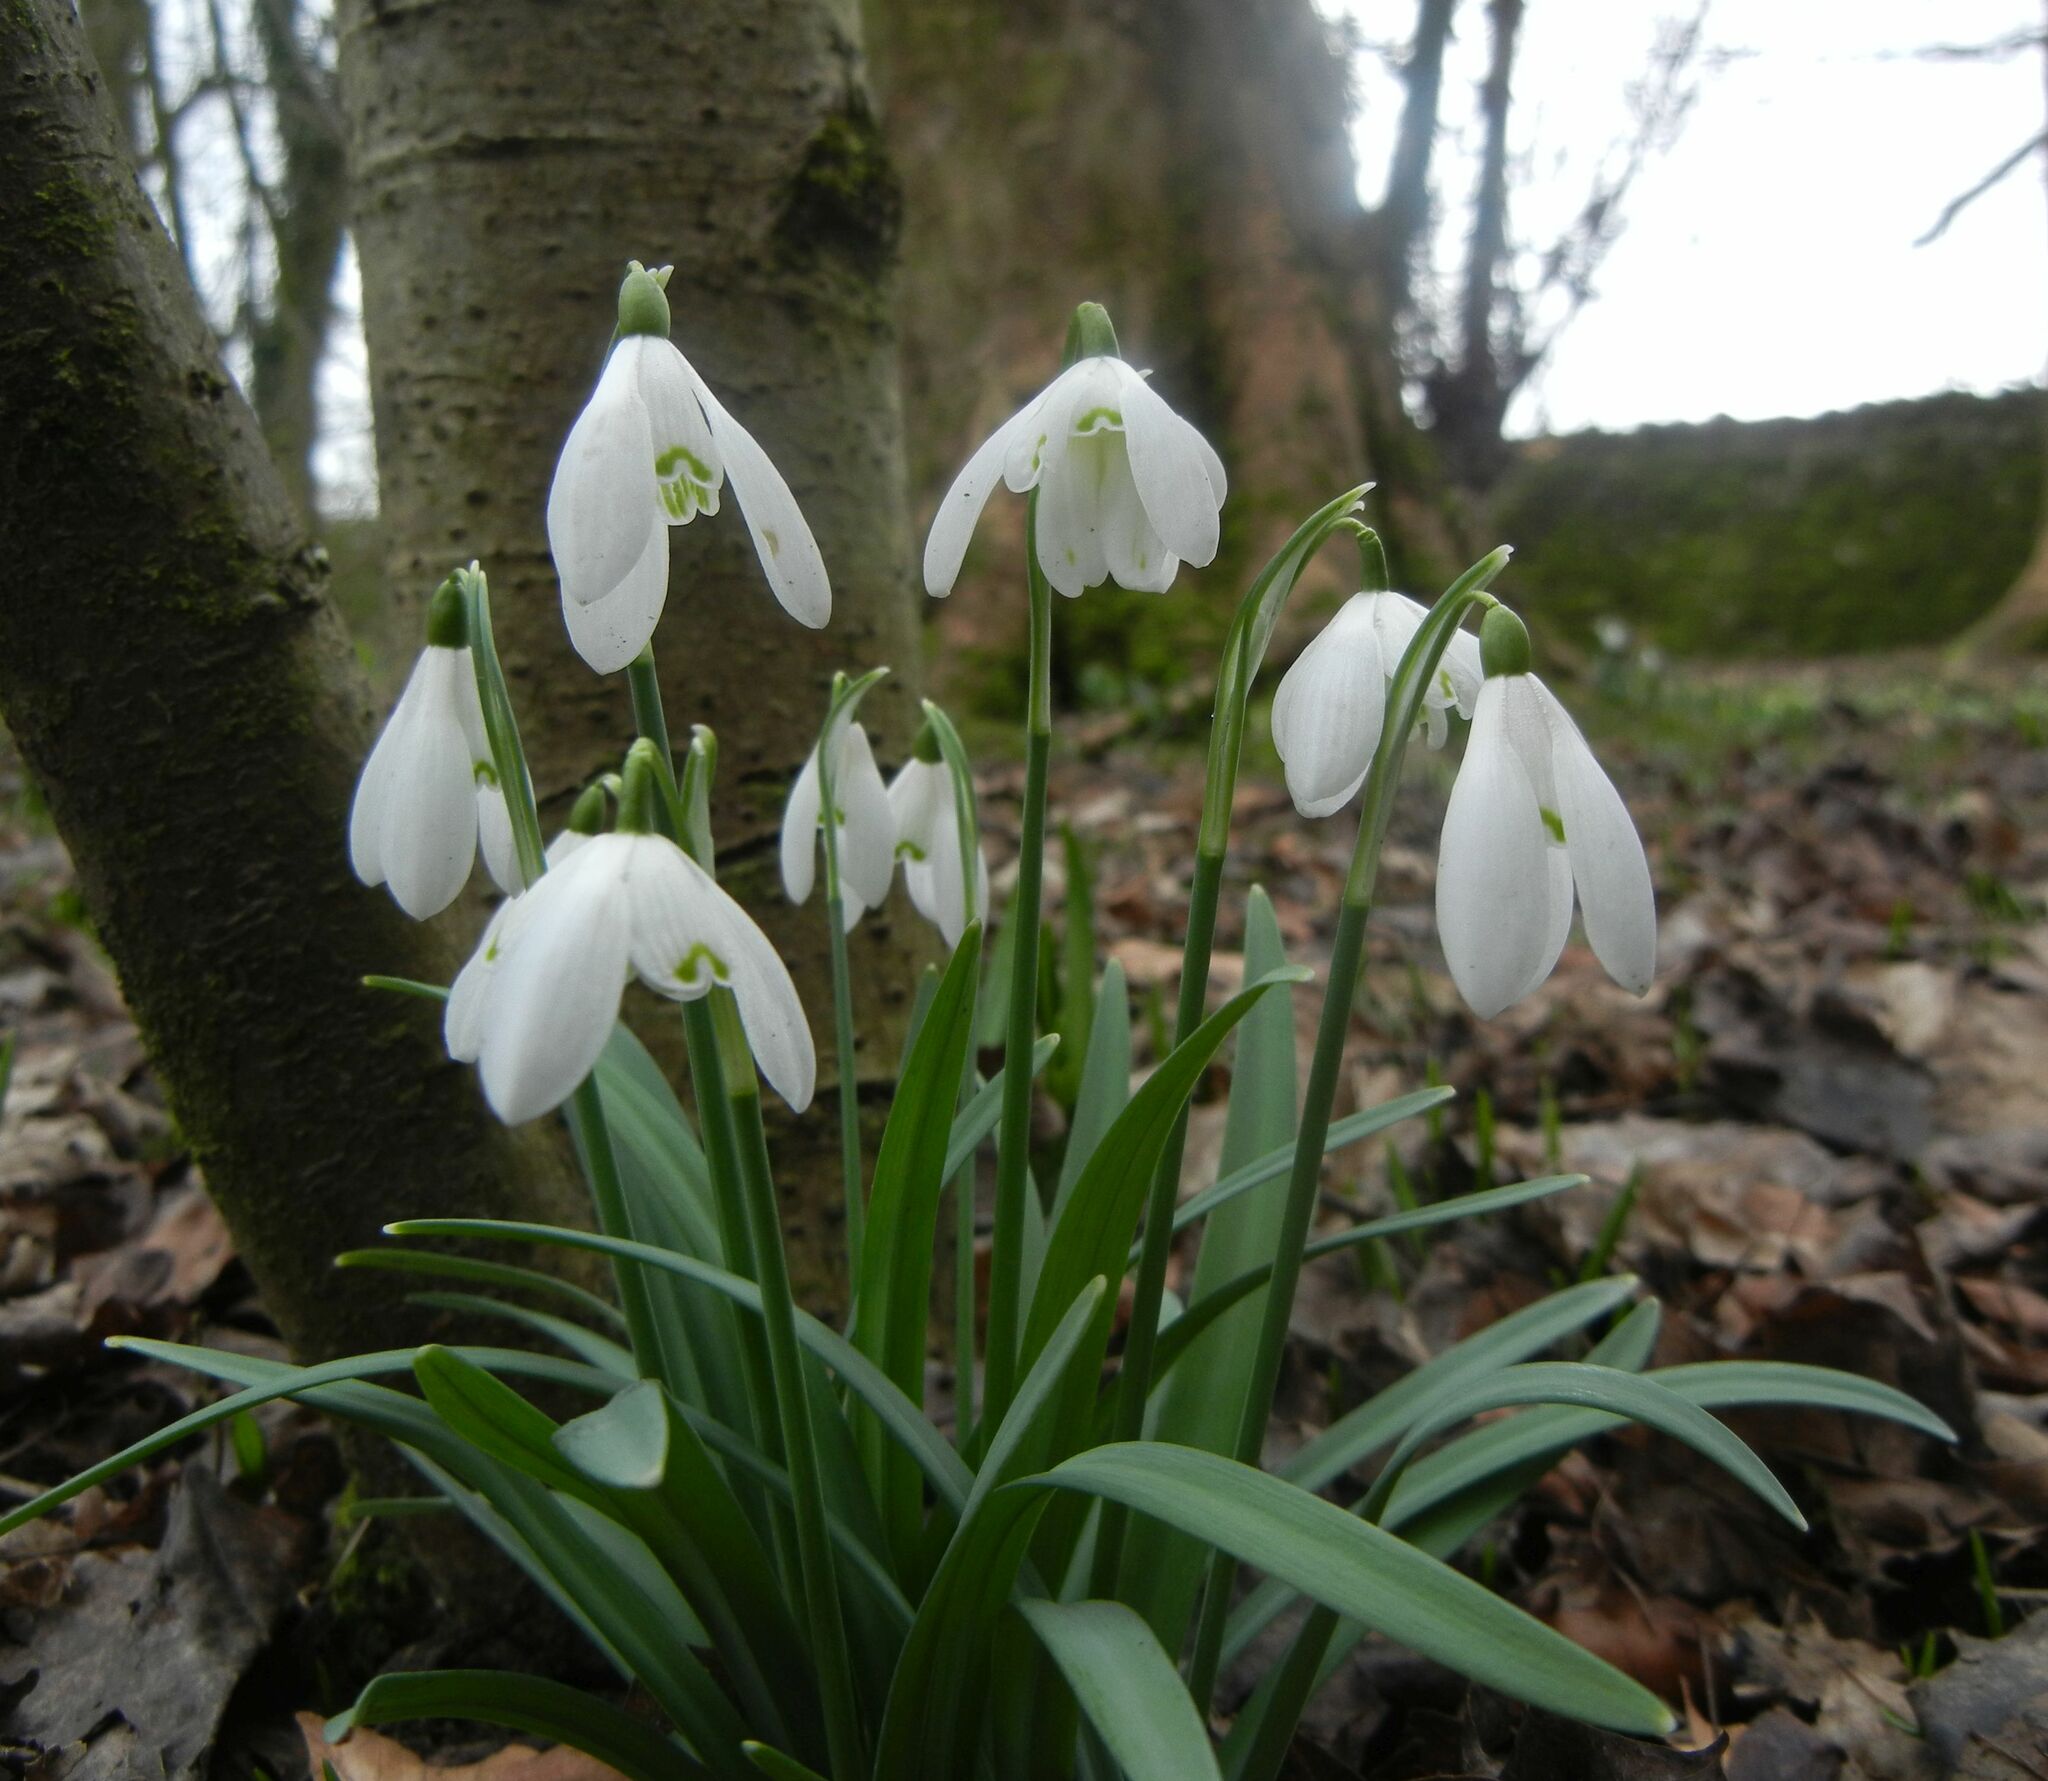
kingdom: Plantae
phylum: Tracheophyta
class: Liliopsida
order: Asparagales
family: Amaryllidaceae
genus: Galanthus
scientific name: Galanthus nivalis
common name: Snowdrop
